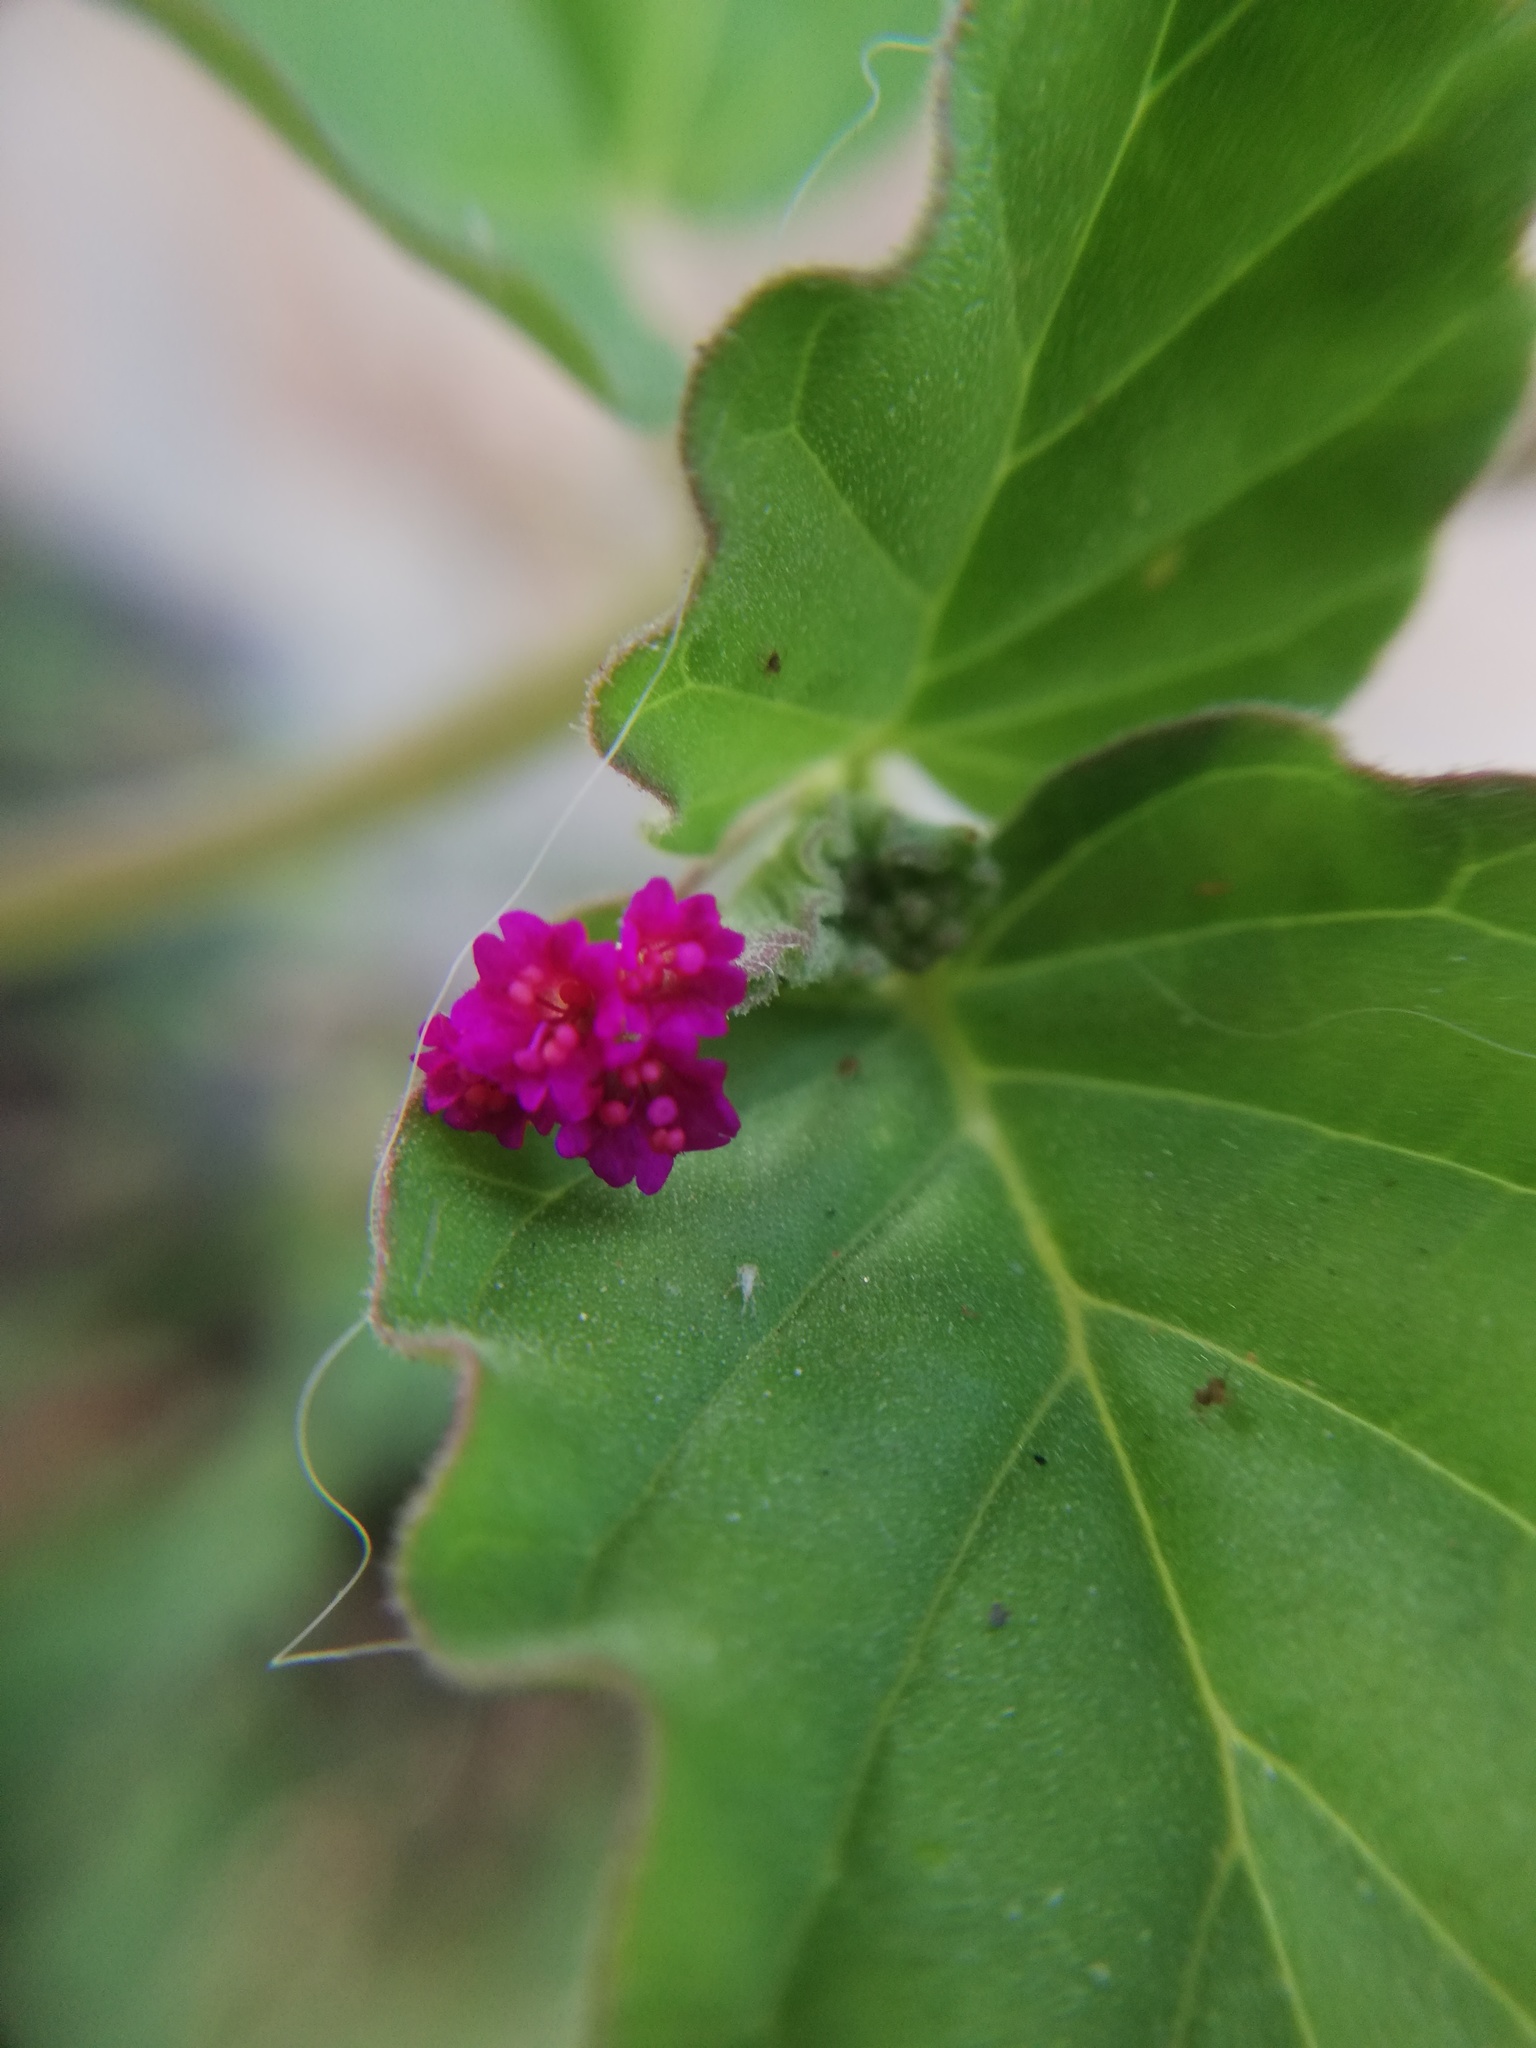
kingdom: Plantae
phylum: Tracheophyta
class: Magnoliopsida
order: Caryophyllales
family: Nyctaginaceae
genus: Boerhavia
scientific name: Boerhavia coccinea
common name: Scarlet spiderling
